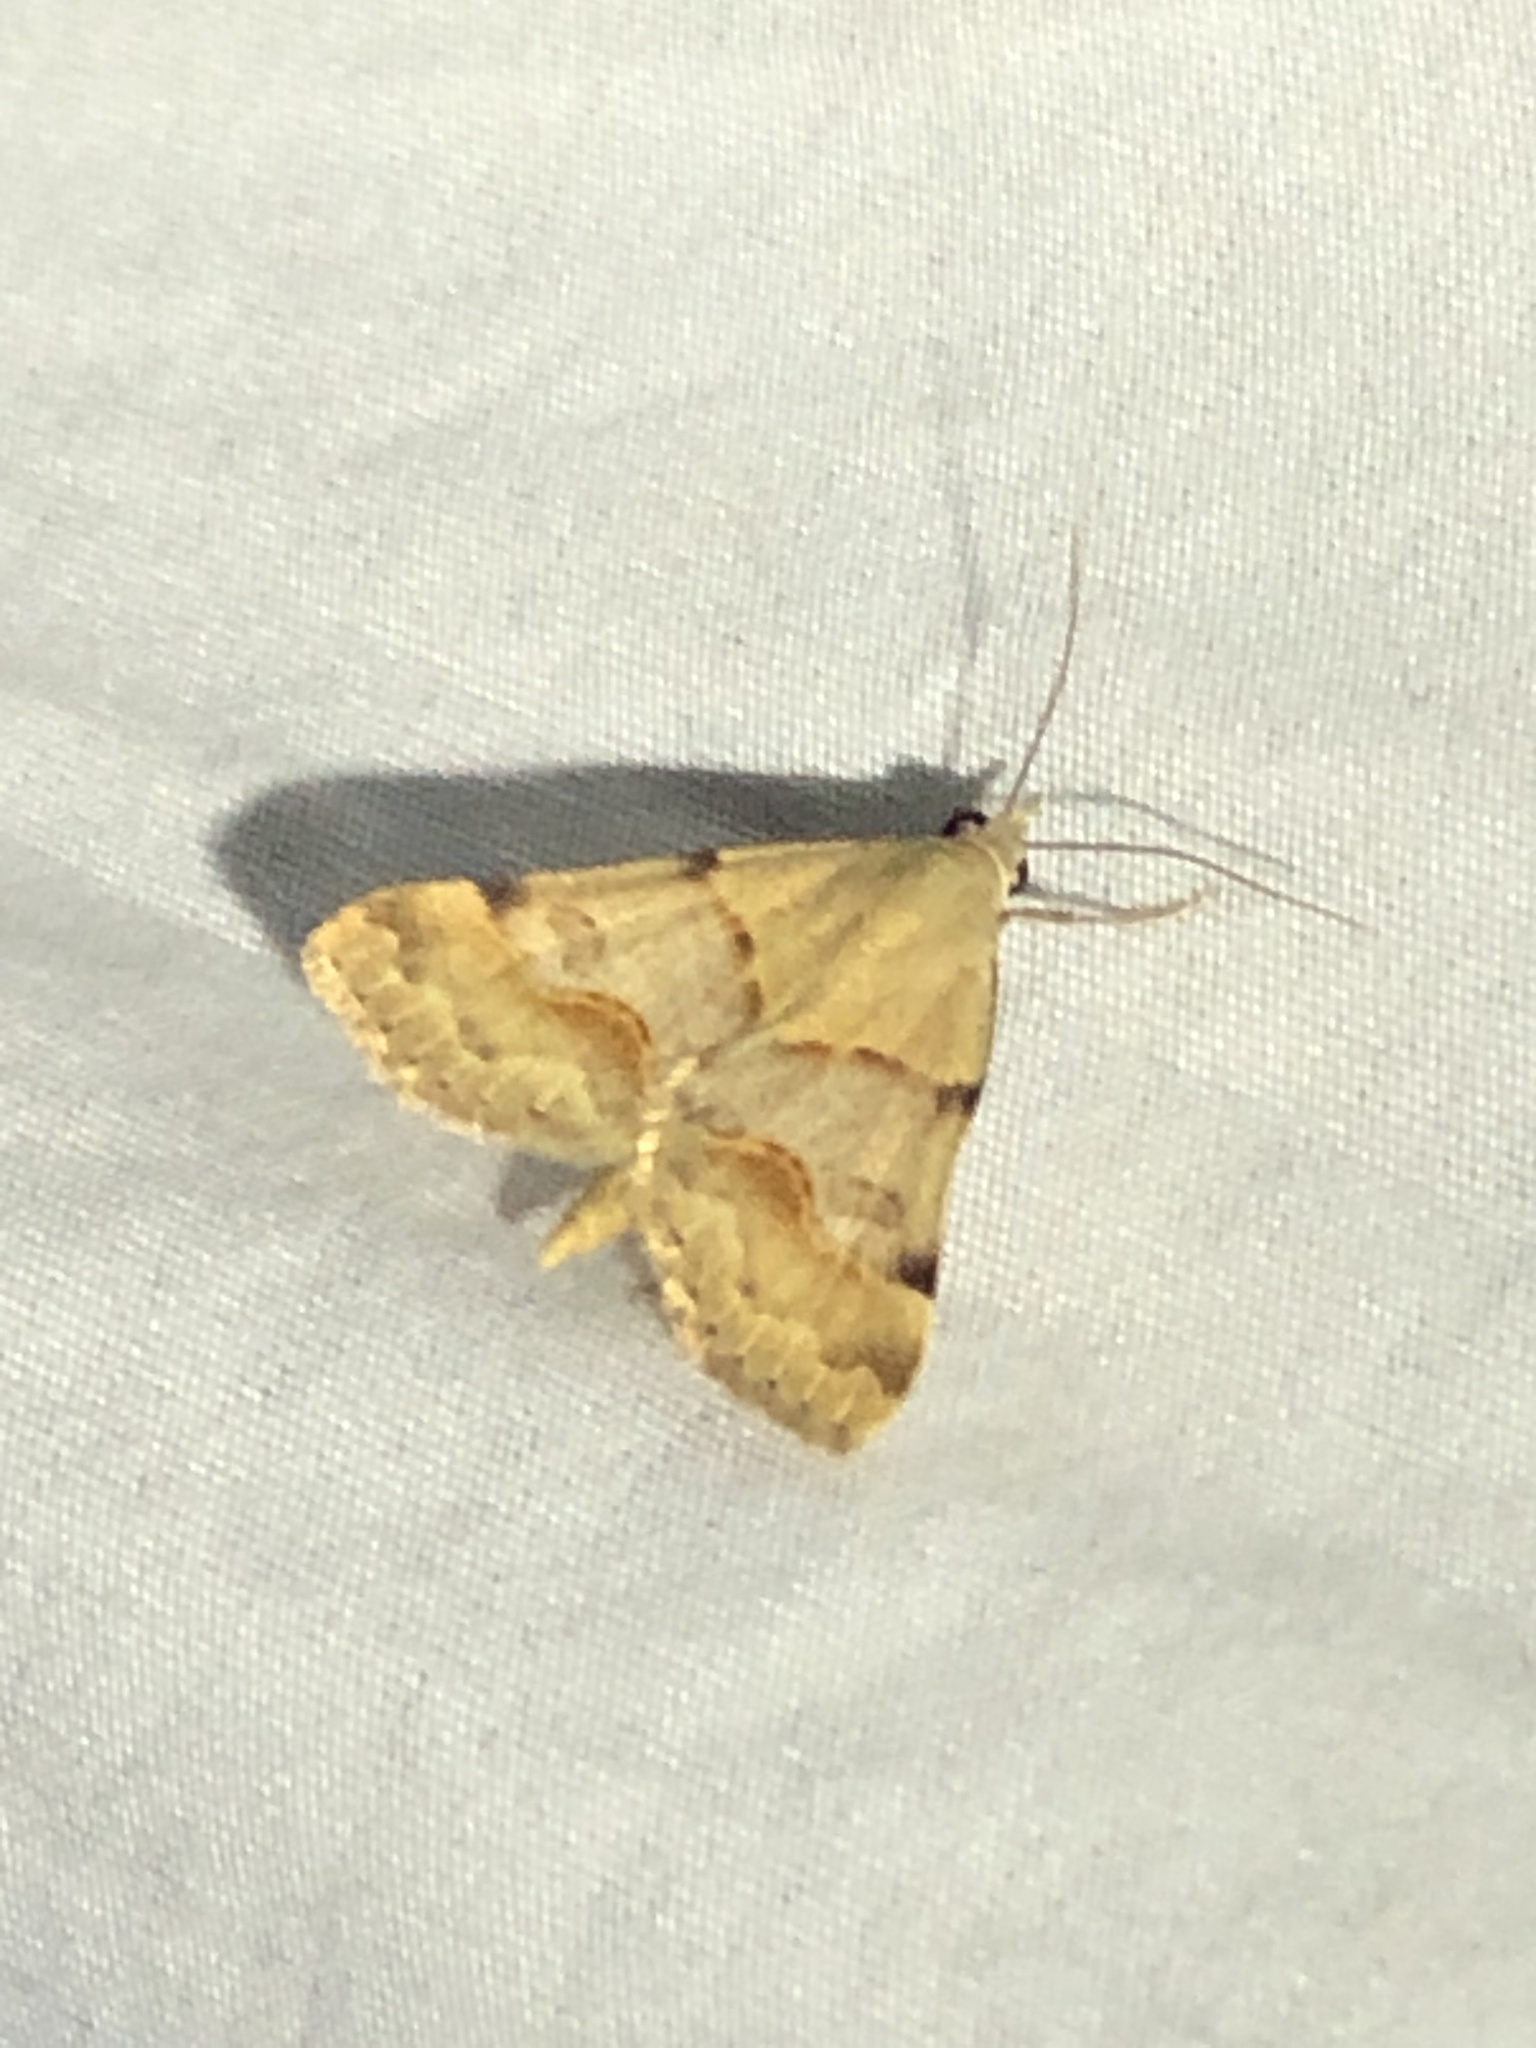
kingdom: Animalia
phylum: Arthropoda
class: Insecta
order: Lepidoptera
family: Erebidae
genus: Hemeroplanis
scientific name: Hemeroplanis incusalis
